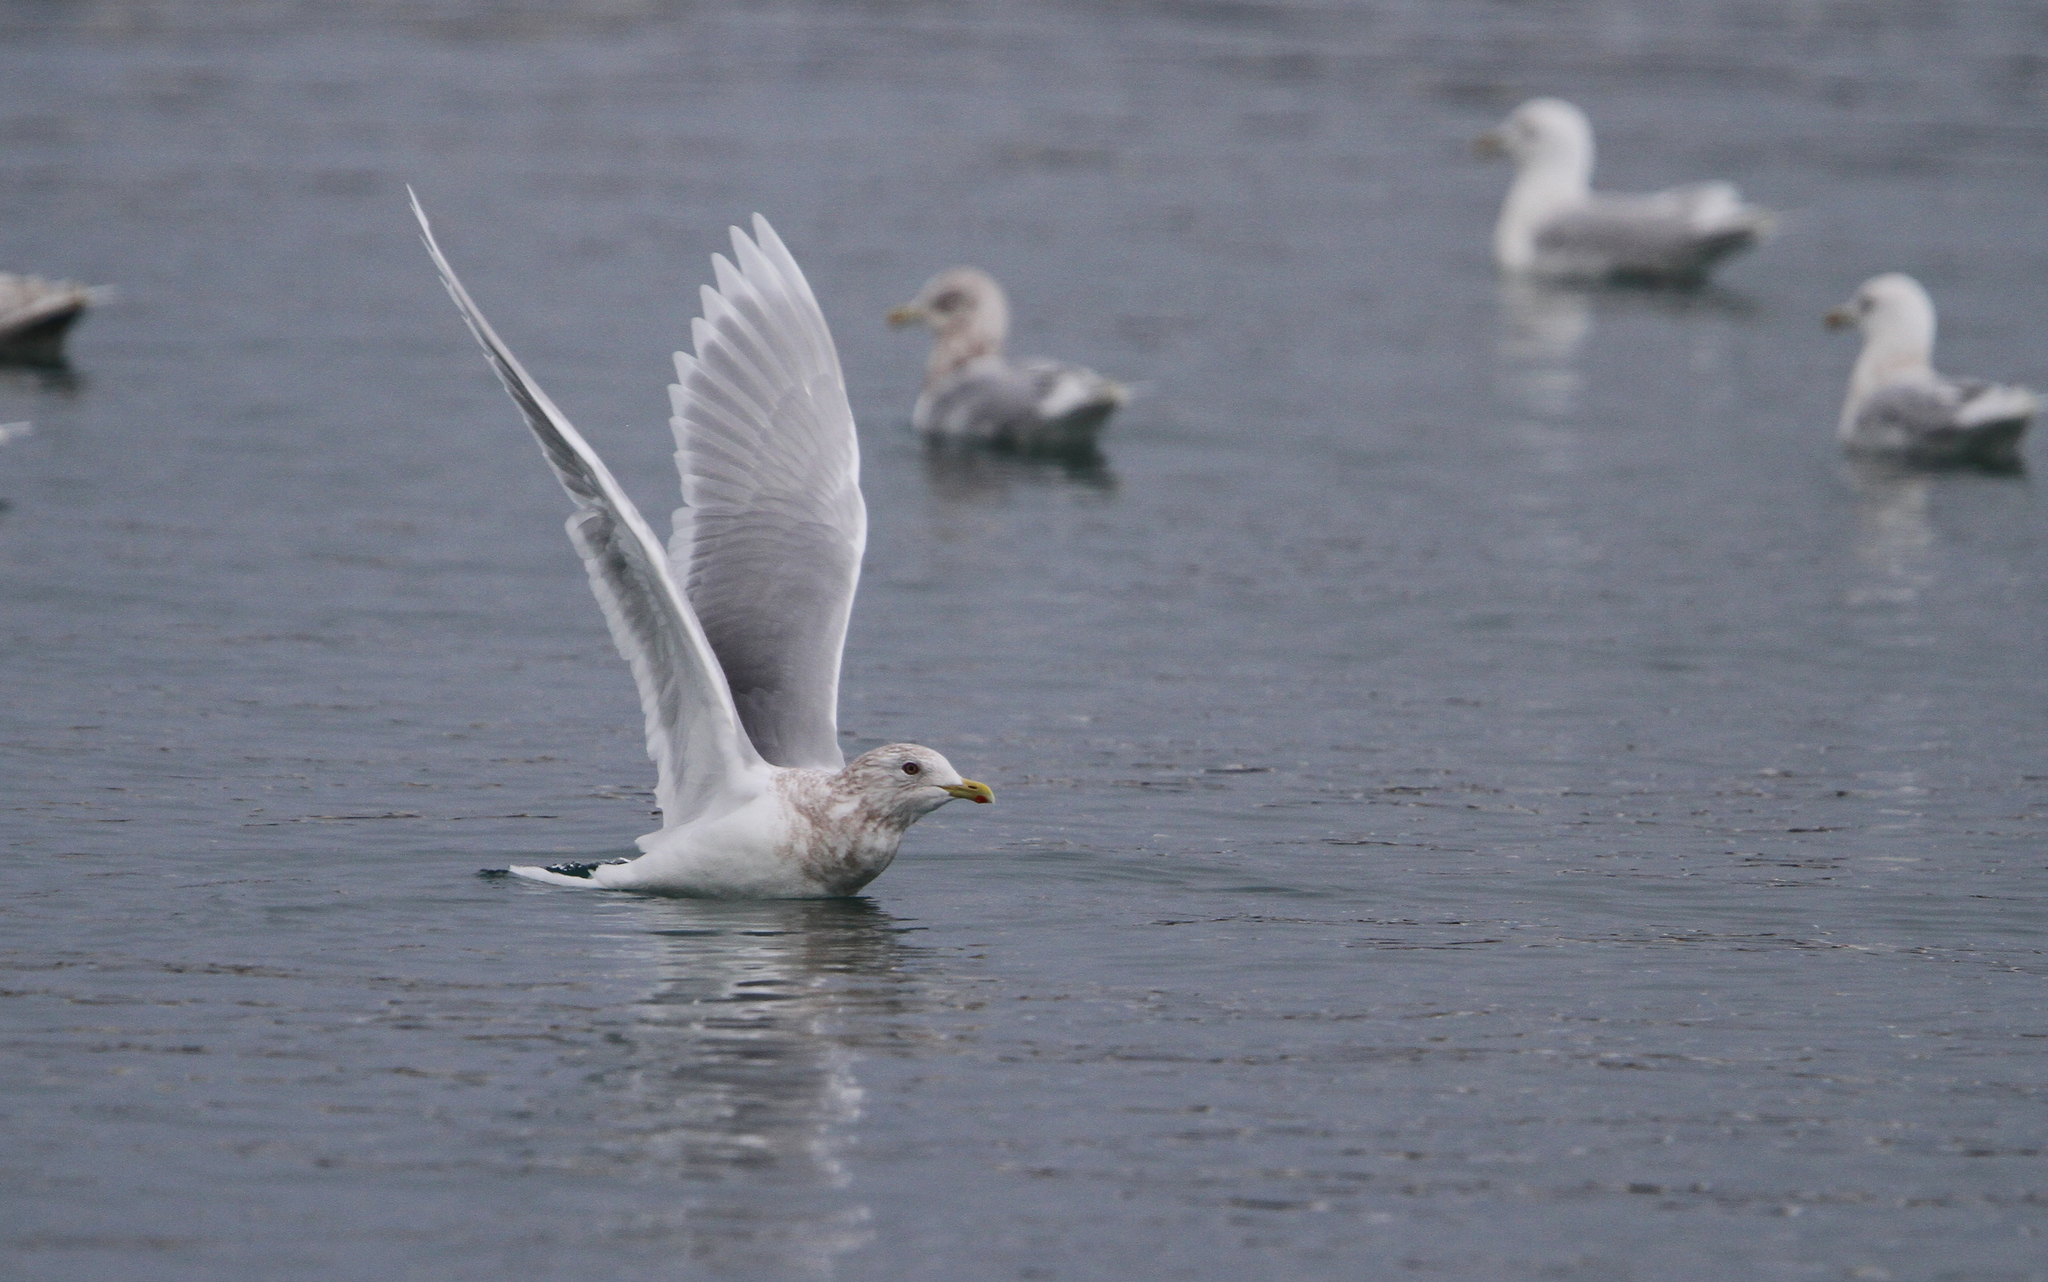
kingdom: Animalia
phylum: Chordata
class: Aves
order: Charadriiformes
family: Laridae
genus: Larus
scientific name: Larus glaucoides
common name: Iceland gull
